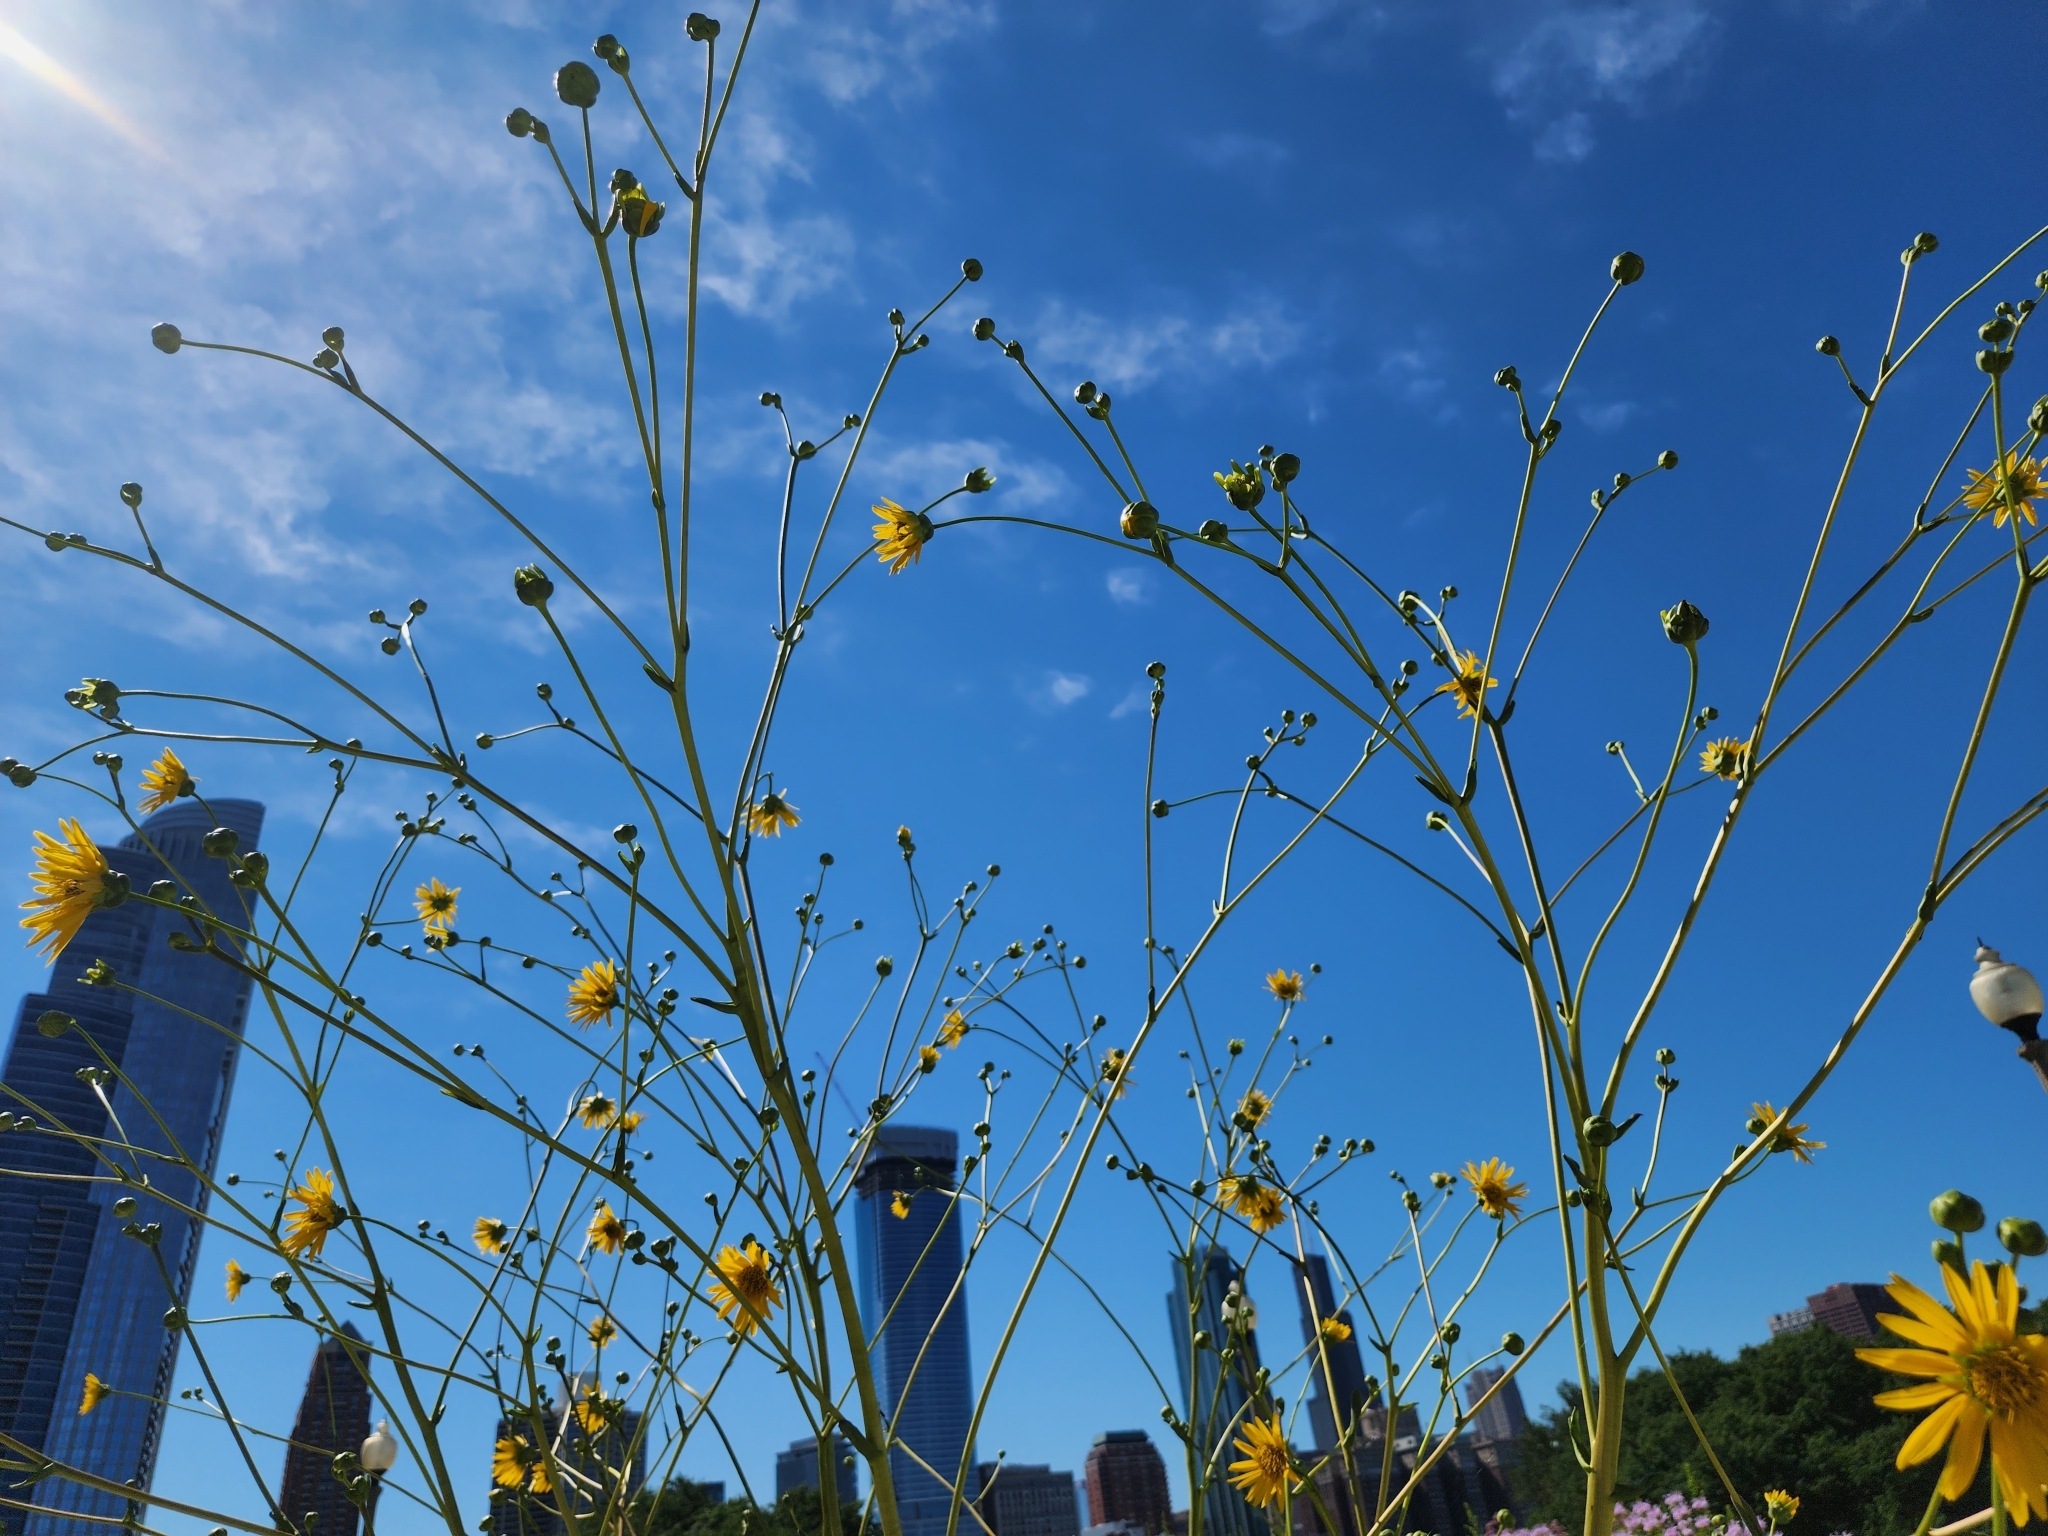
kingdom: Plantae
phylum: Tracheophyta
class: Magnoliopsida
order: Asterales
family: Asteraceae
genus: Silphium
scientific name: Silphium terebinthinaceum
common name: Basal-leaf rosinweed
